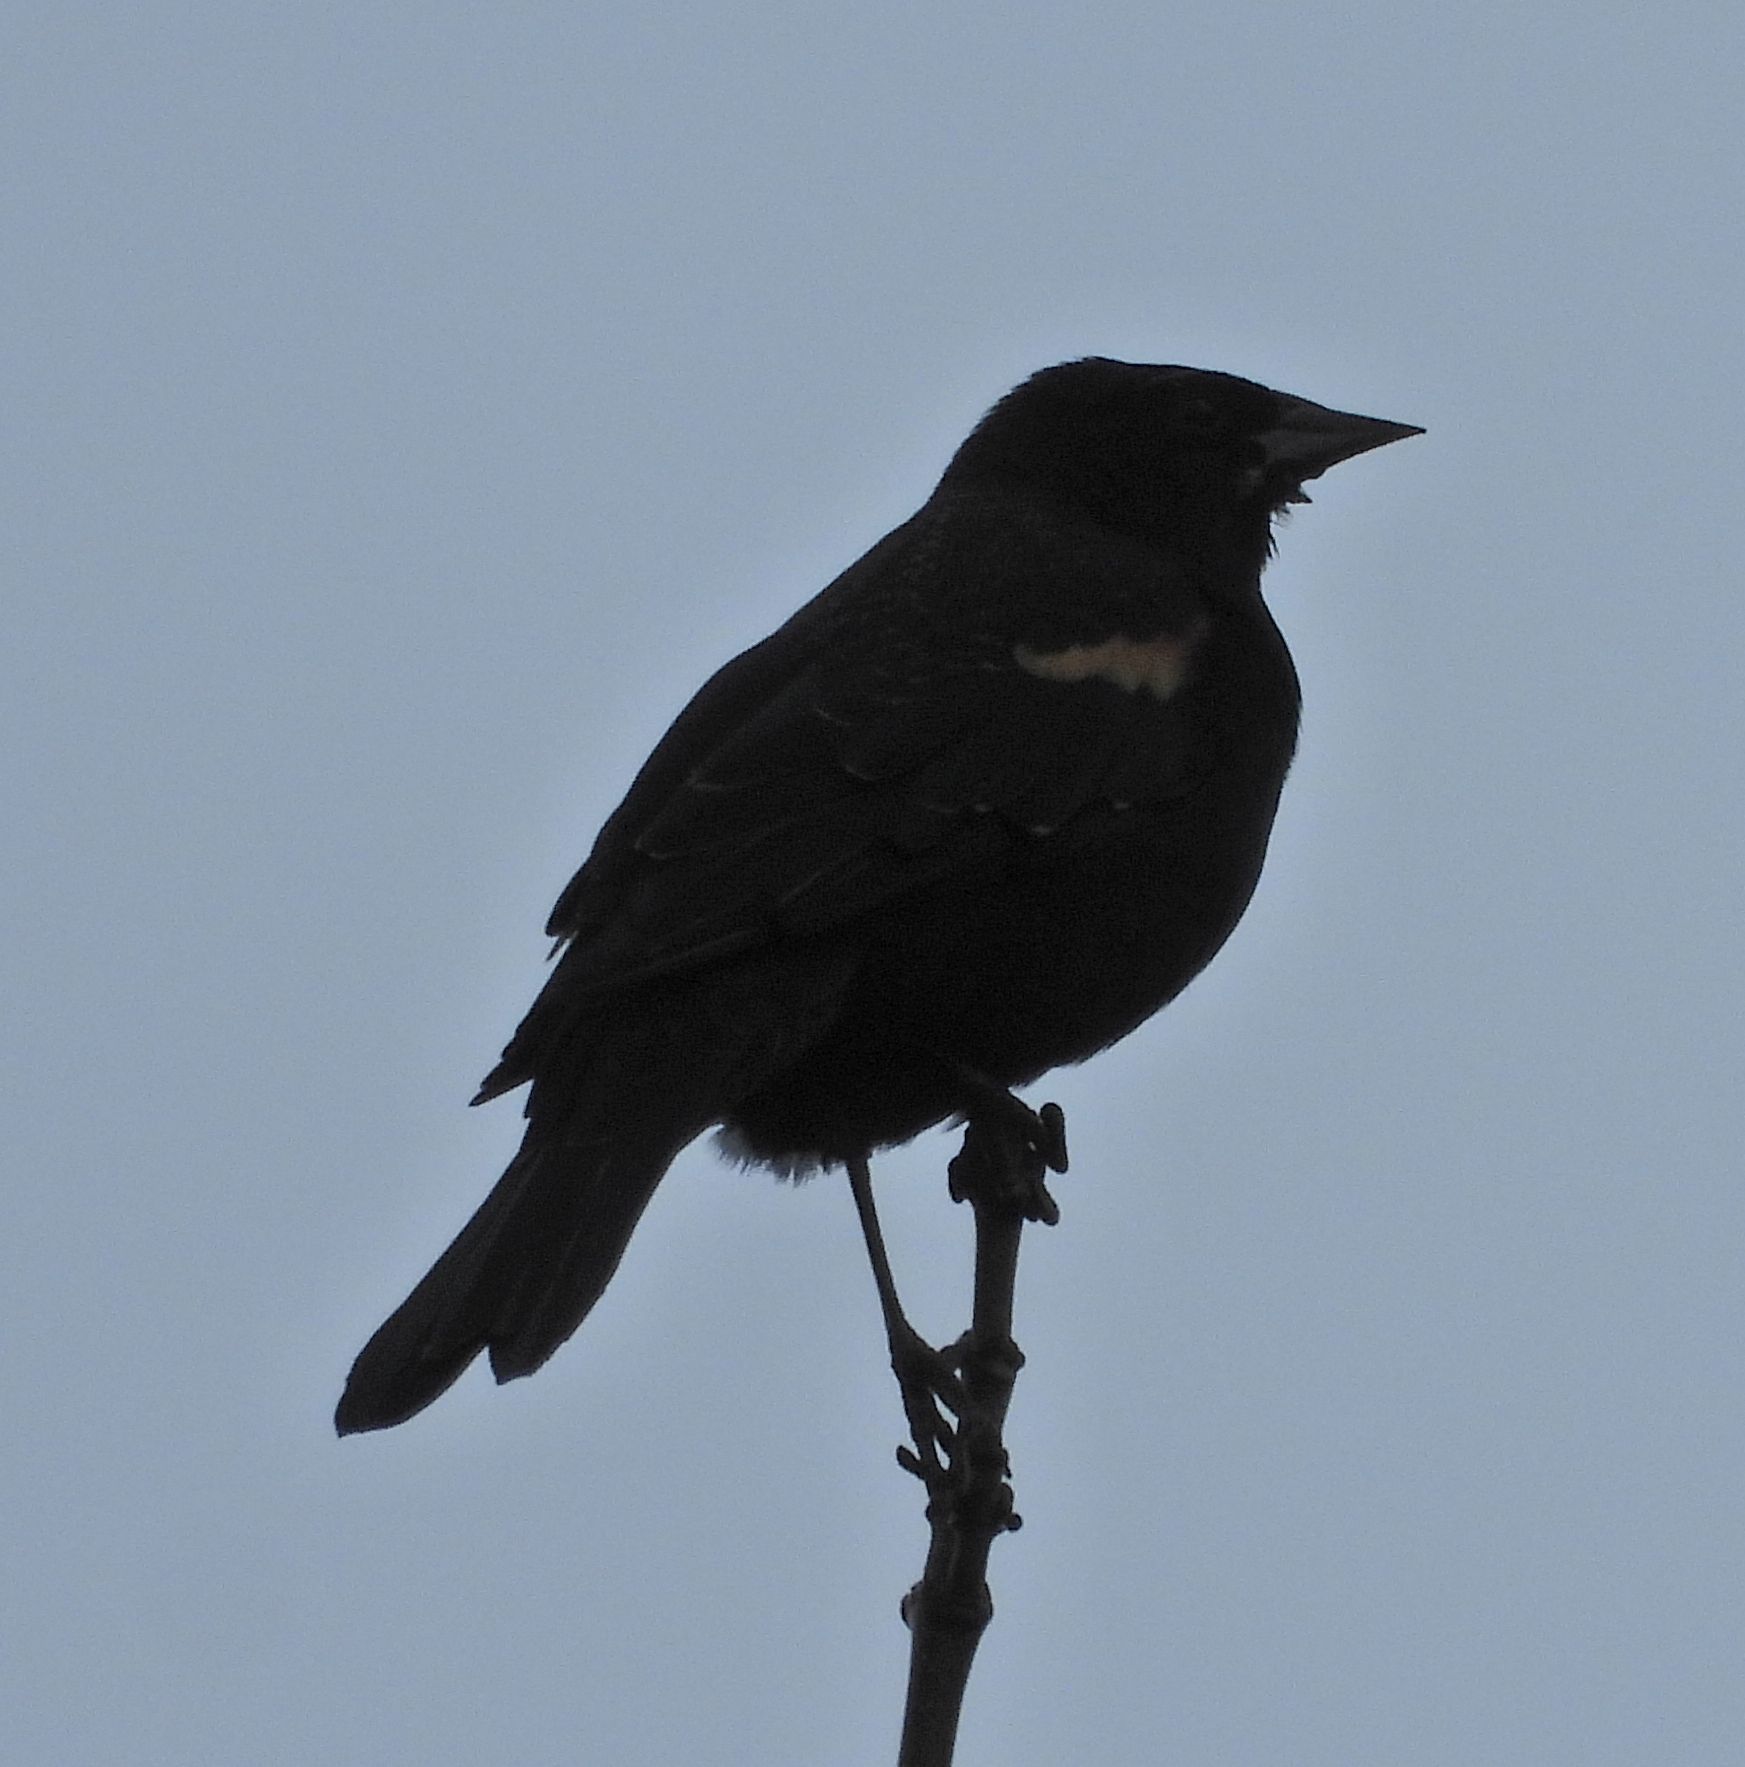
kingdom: Animalia
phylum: Chordata
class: Aves
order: Passeriformes
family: Icteridae
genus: Agelaius
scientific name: Agelaius phoeniceus
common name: Red-winged blackbird
